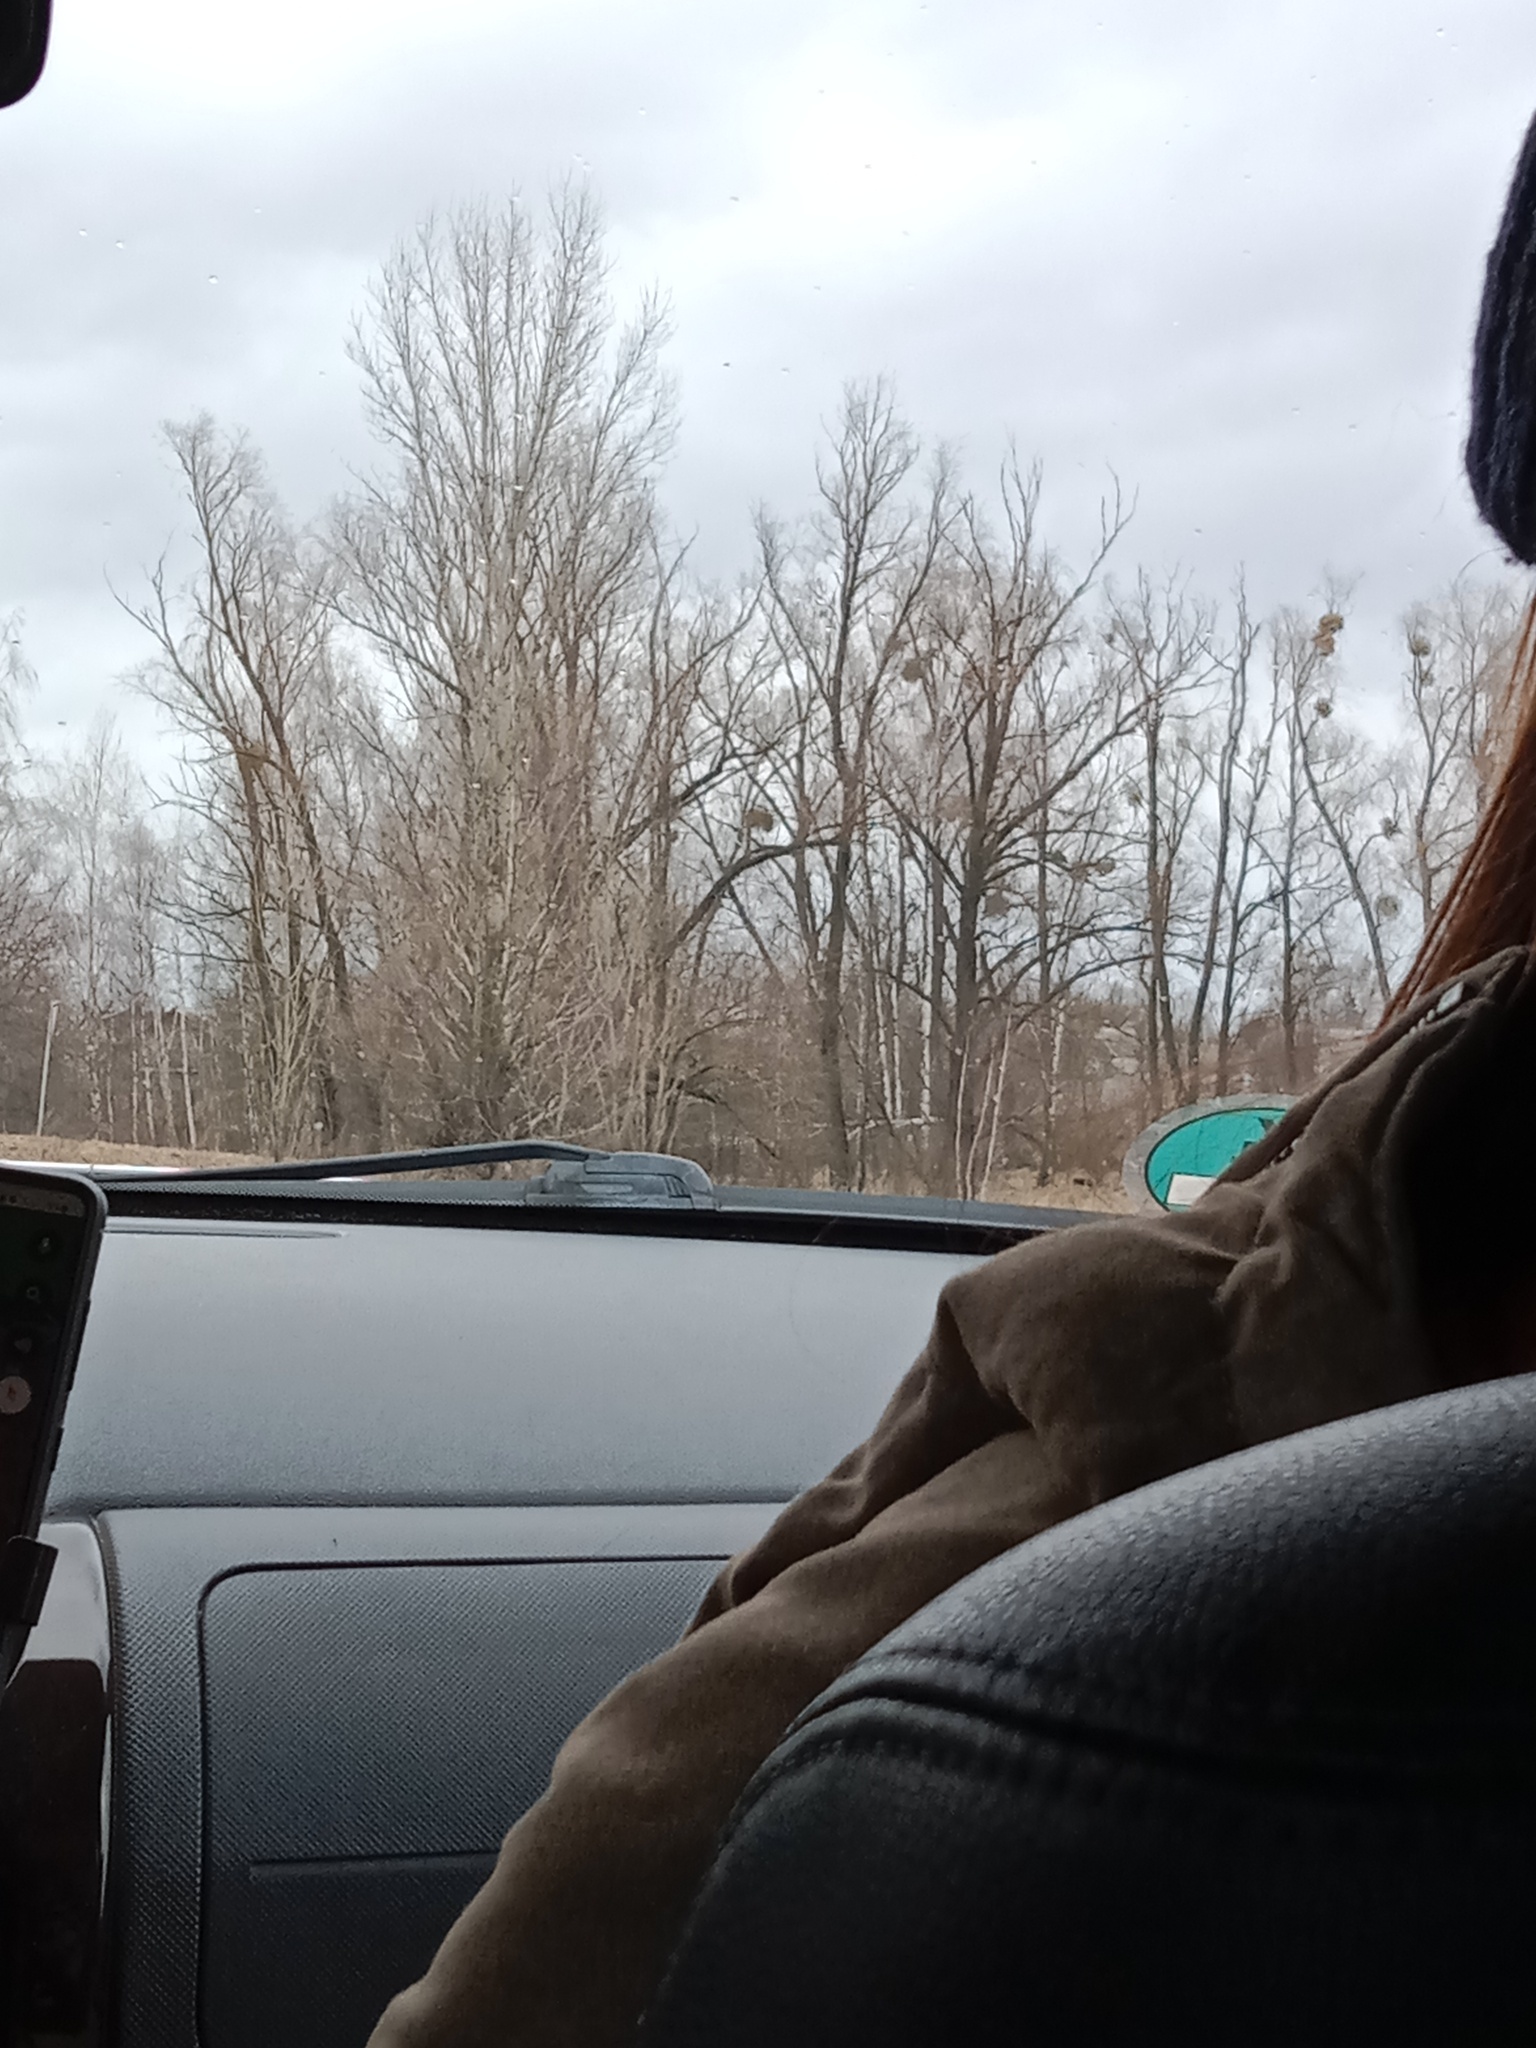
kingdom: Plantae
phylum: Tracheophyta
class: Magnoliopsida
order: Santalales
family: Viscaceae
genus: Viscum
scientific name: Viscum album
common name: Mistletoe
